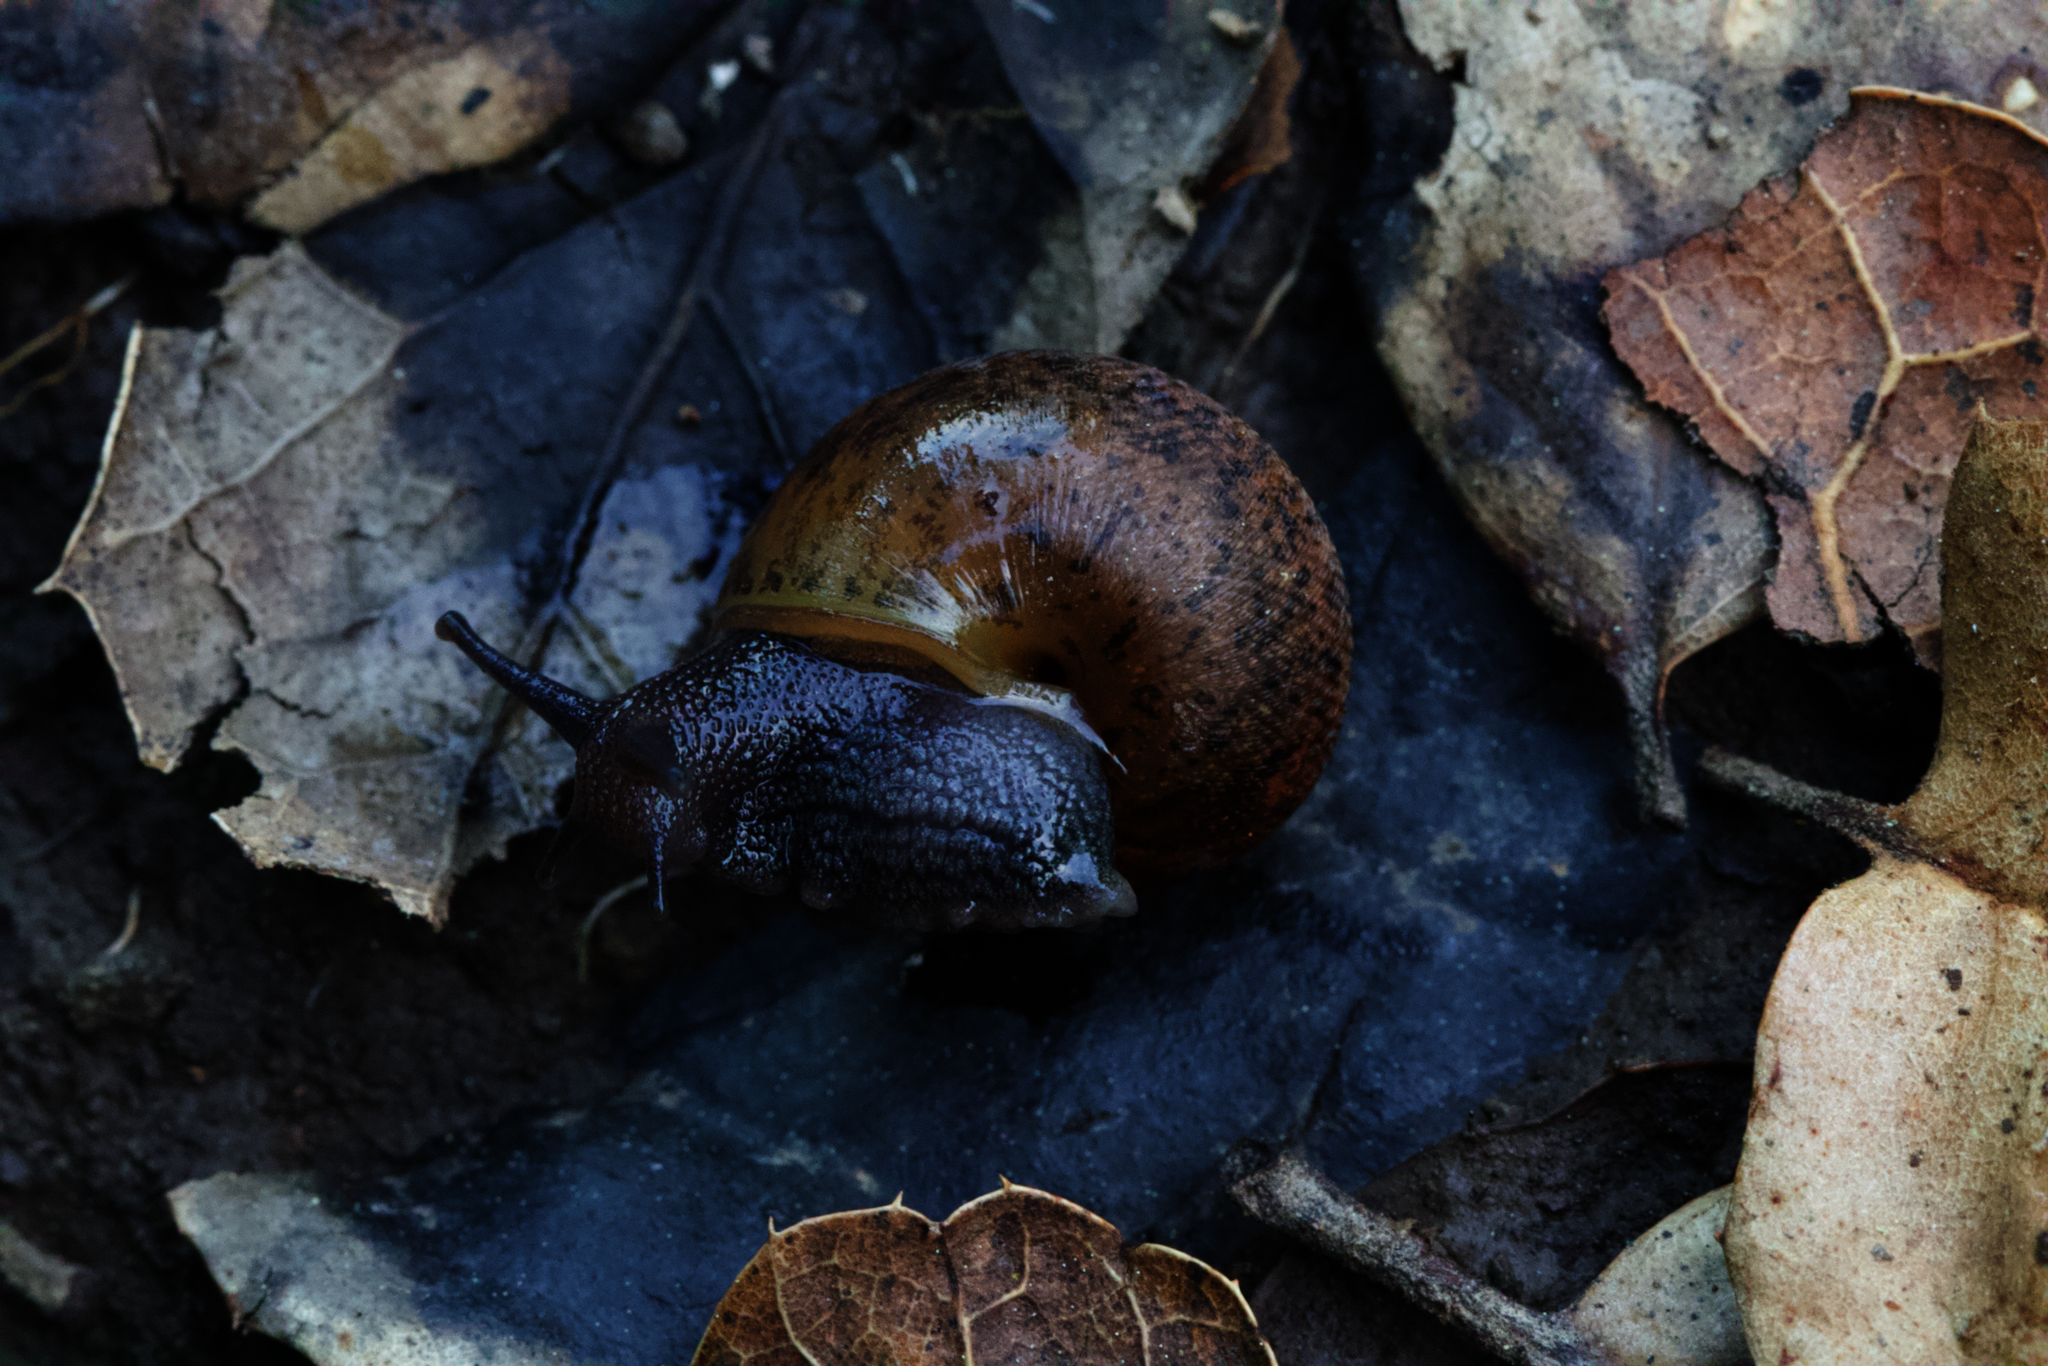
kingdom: Animalia
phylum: Mollusca
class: Gastropoda
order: Stylommatophora
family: Xanthonychidae
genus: Helminthoglypta
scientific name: Helminthoglypta nickliniana
